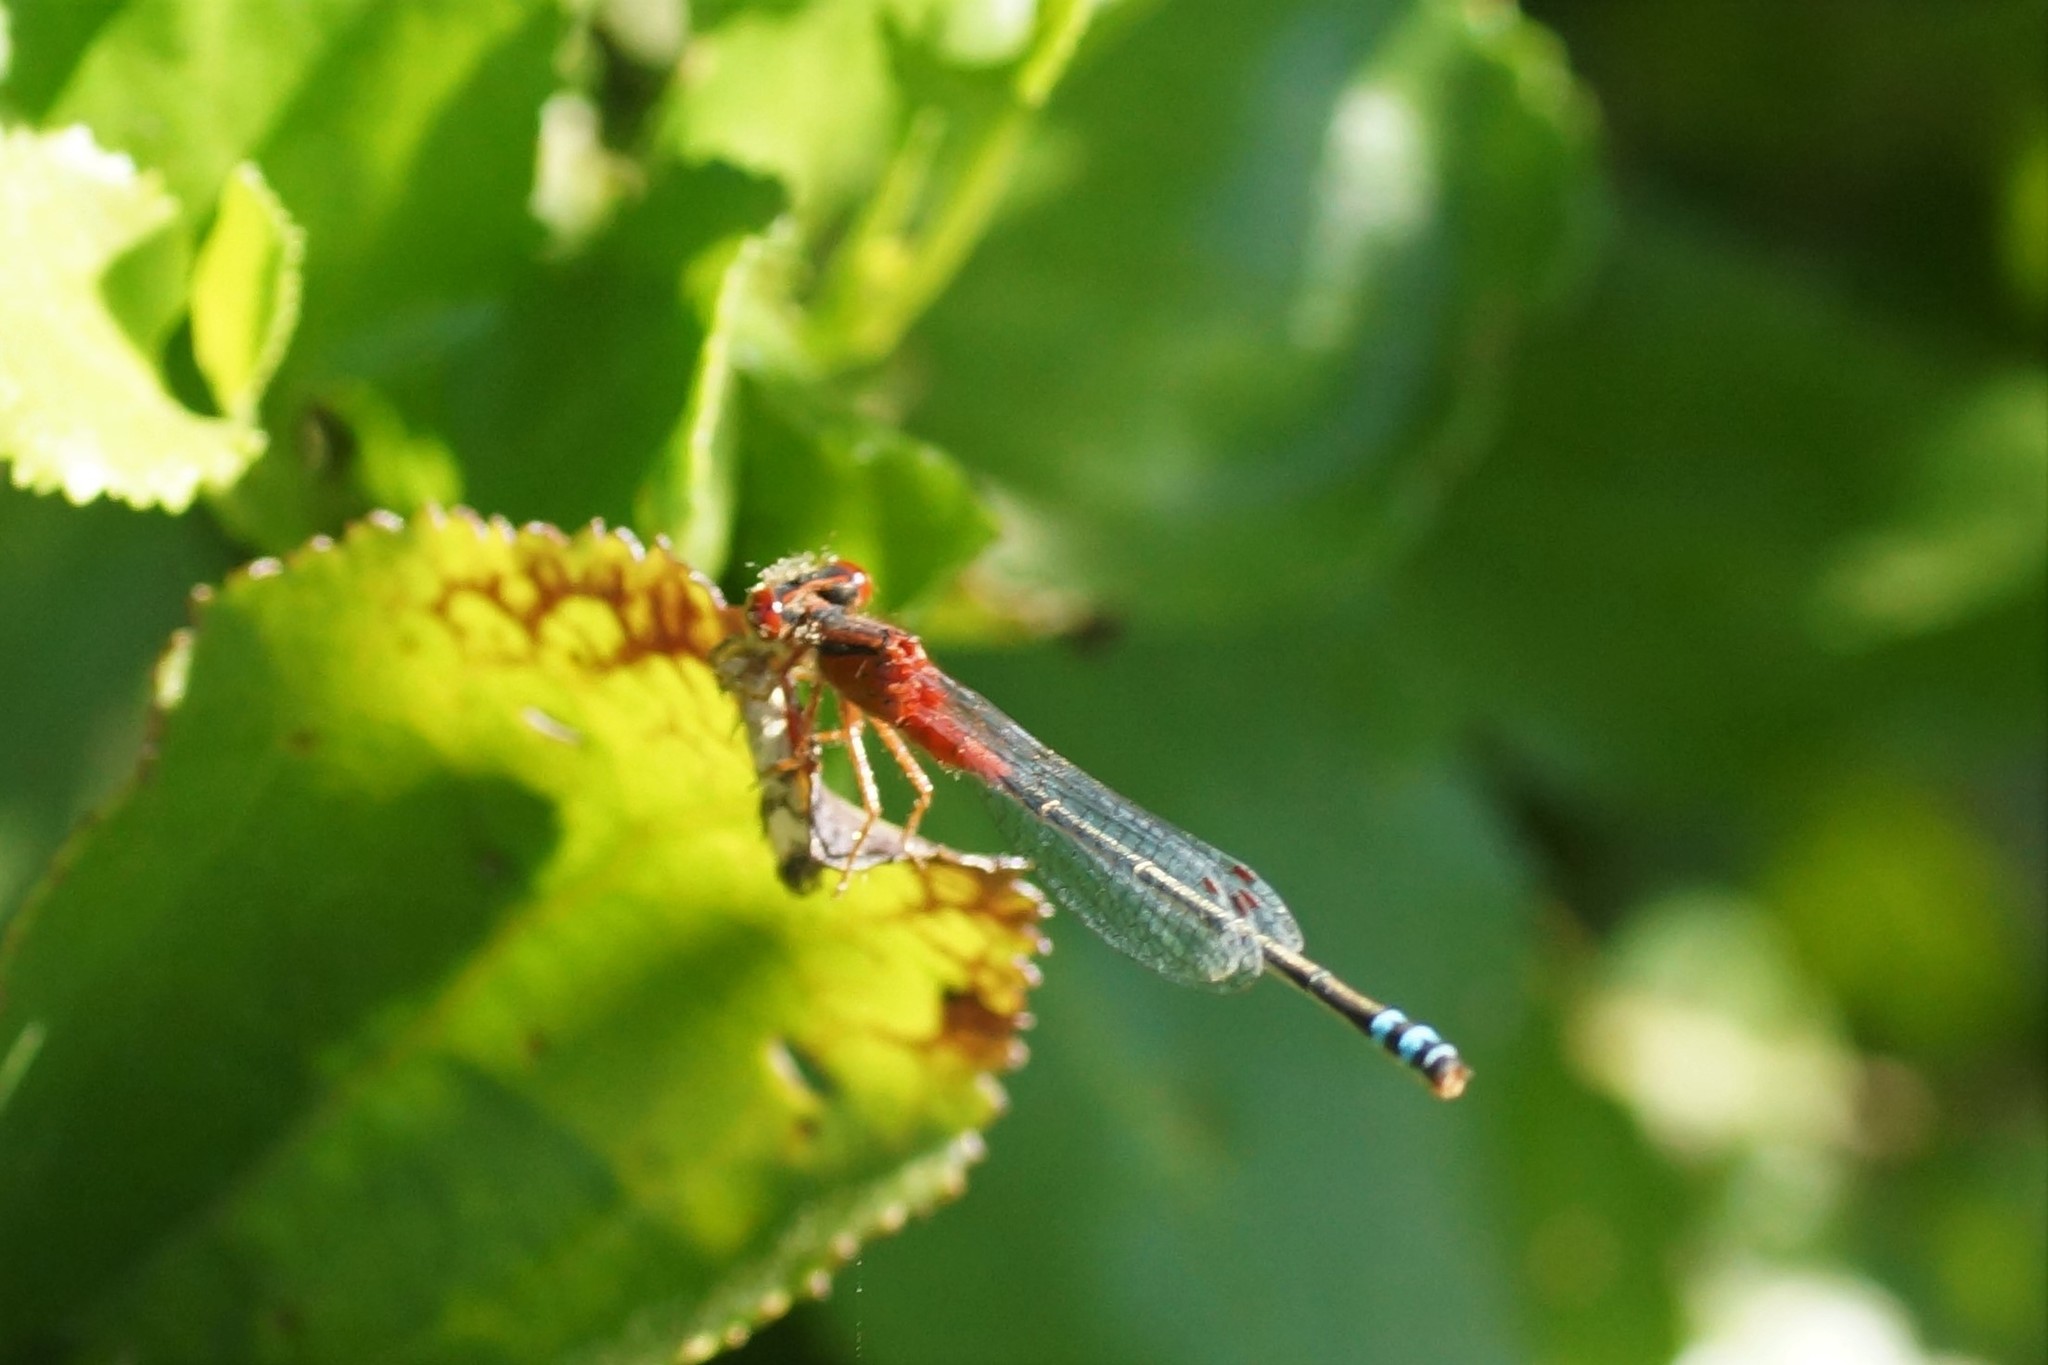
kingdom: Animalia
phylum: Arthropoda
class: Insecta
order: Odonata
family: Coenagrionidae
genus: Xanthagrion
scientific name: Xanthagrion erythroneurum
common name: Red and blue damsel
